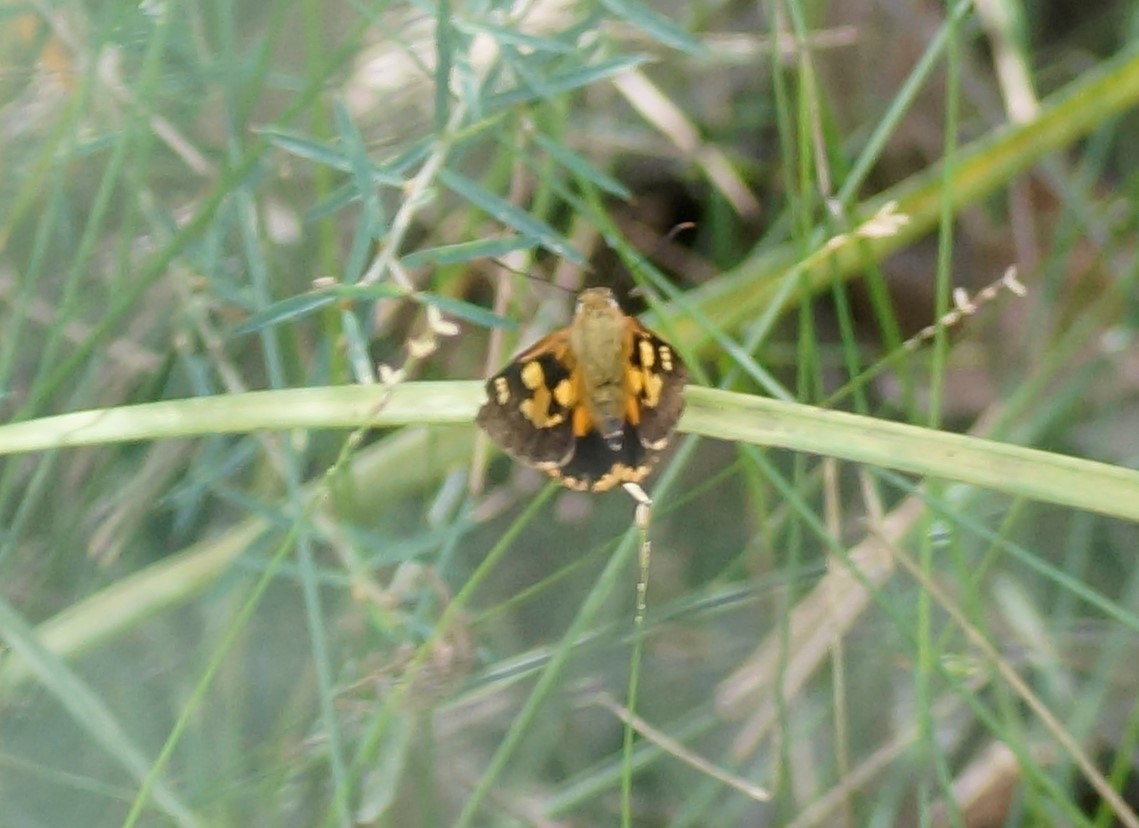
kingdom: Animalia
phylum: Arthropoda
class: Insecta
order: Lepidoptera
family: Hesperiidae
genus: Trapezites
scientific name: Trapezites symmomus
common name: Splendid ochre
